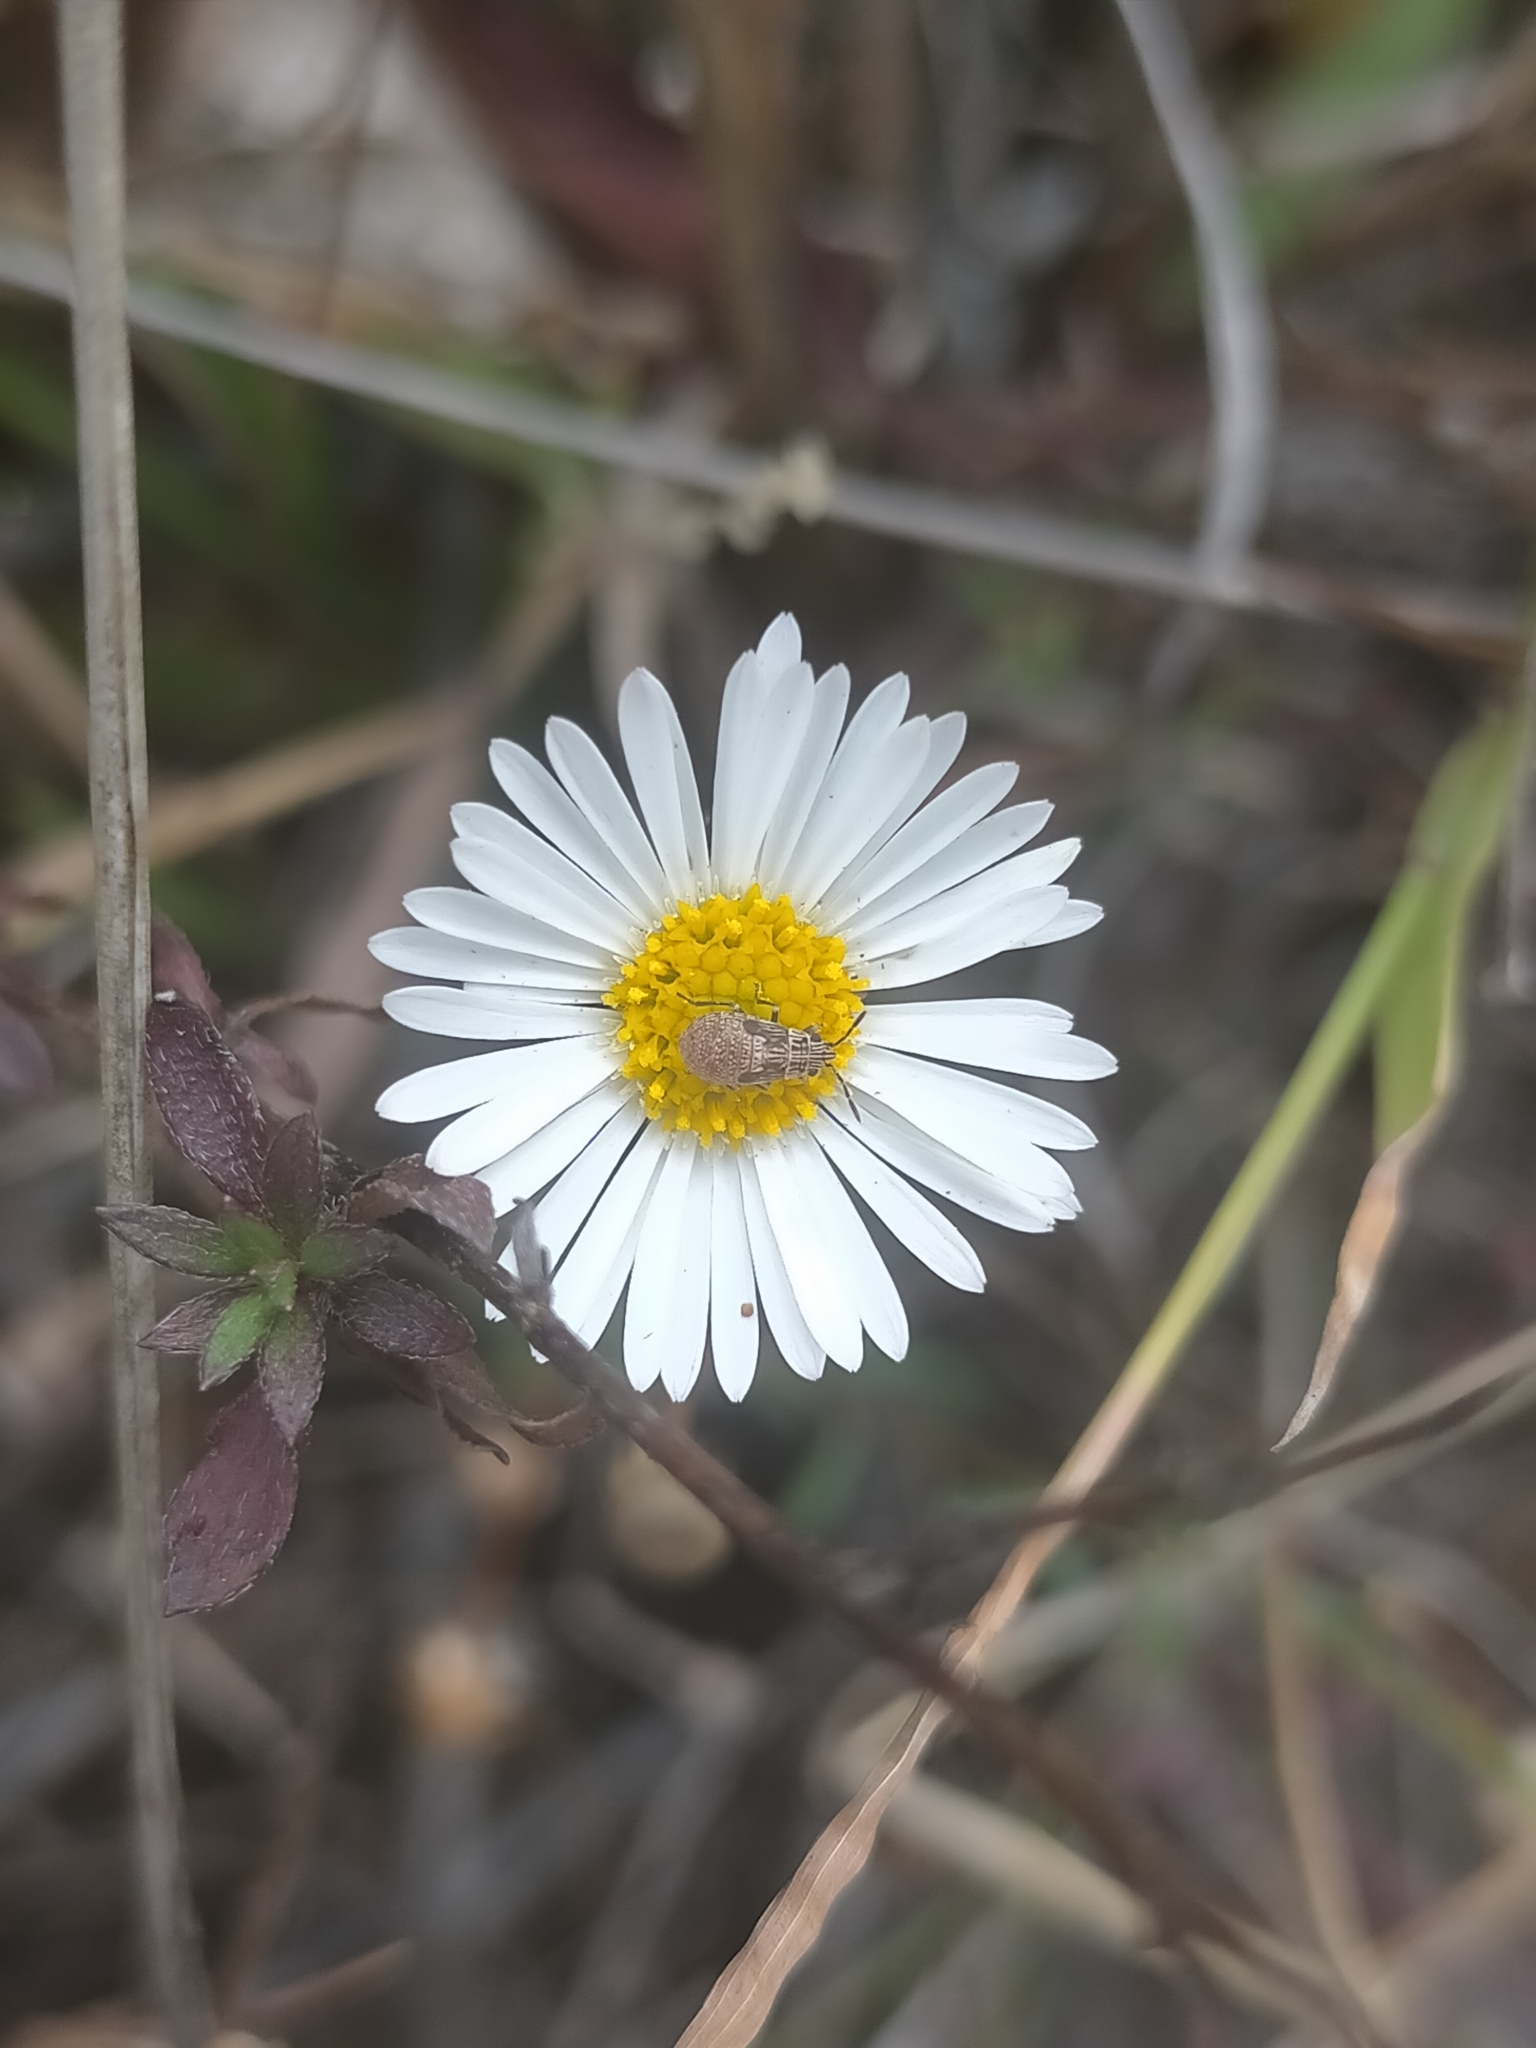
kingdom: Plantae
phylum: Tracheophyta
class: Magnoliopsida
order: Asterales
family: Asteraceae
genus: Erigeron
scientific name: Erigeron karvinskianus
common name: Mexican fleabane
